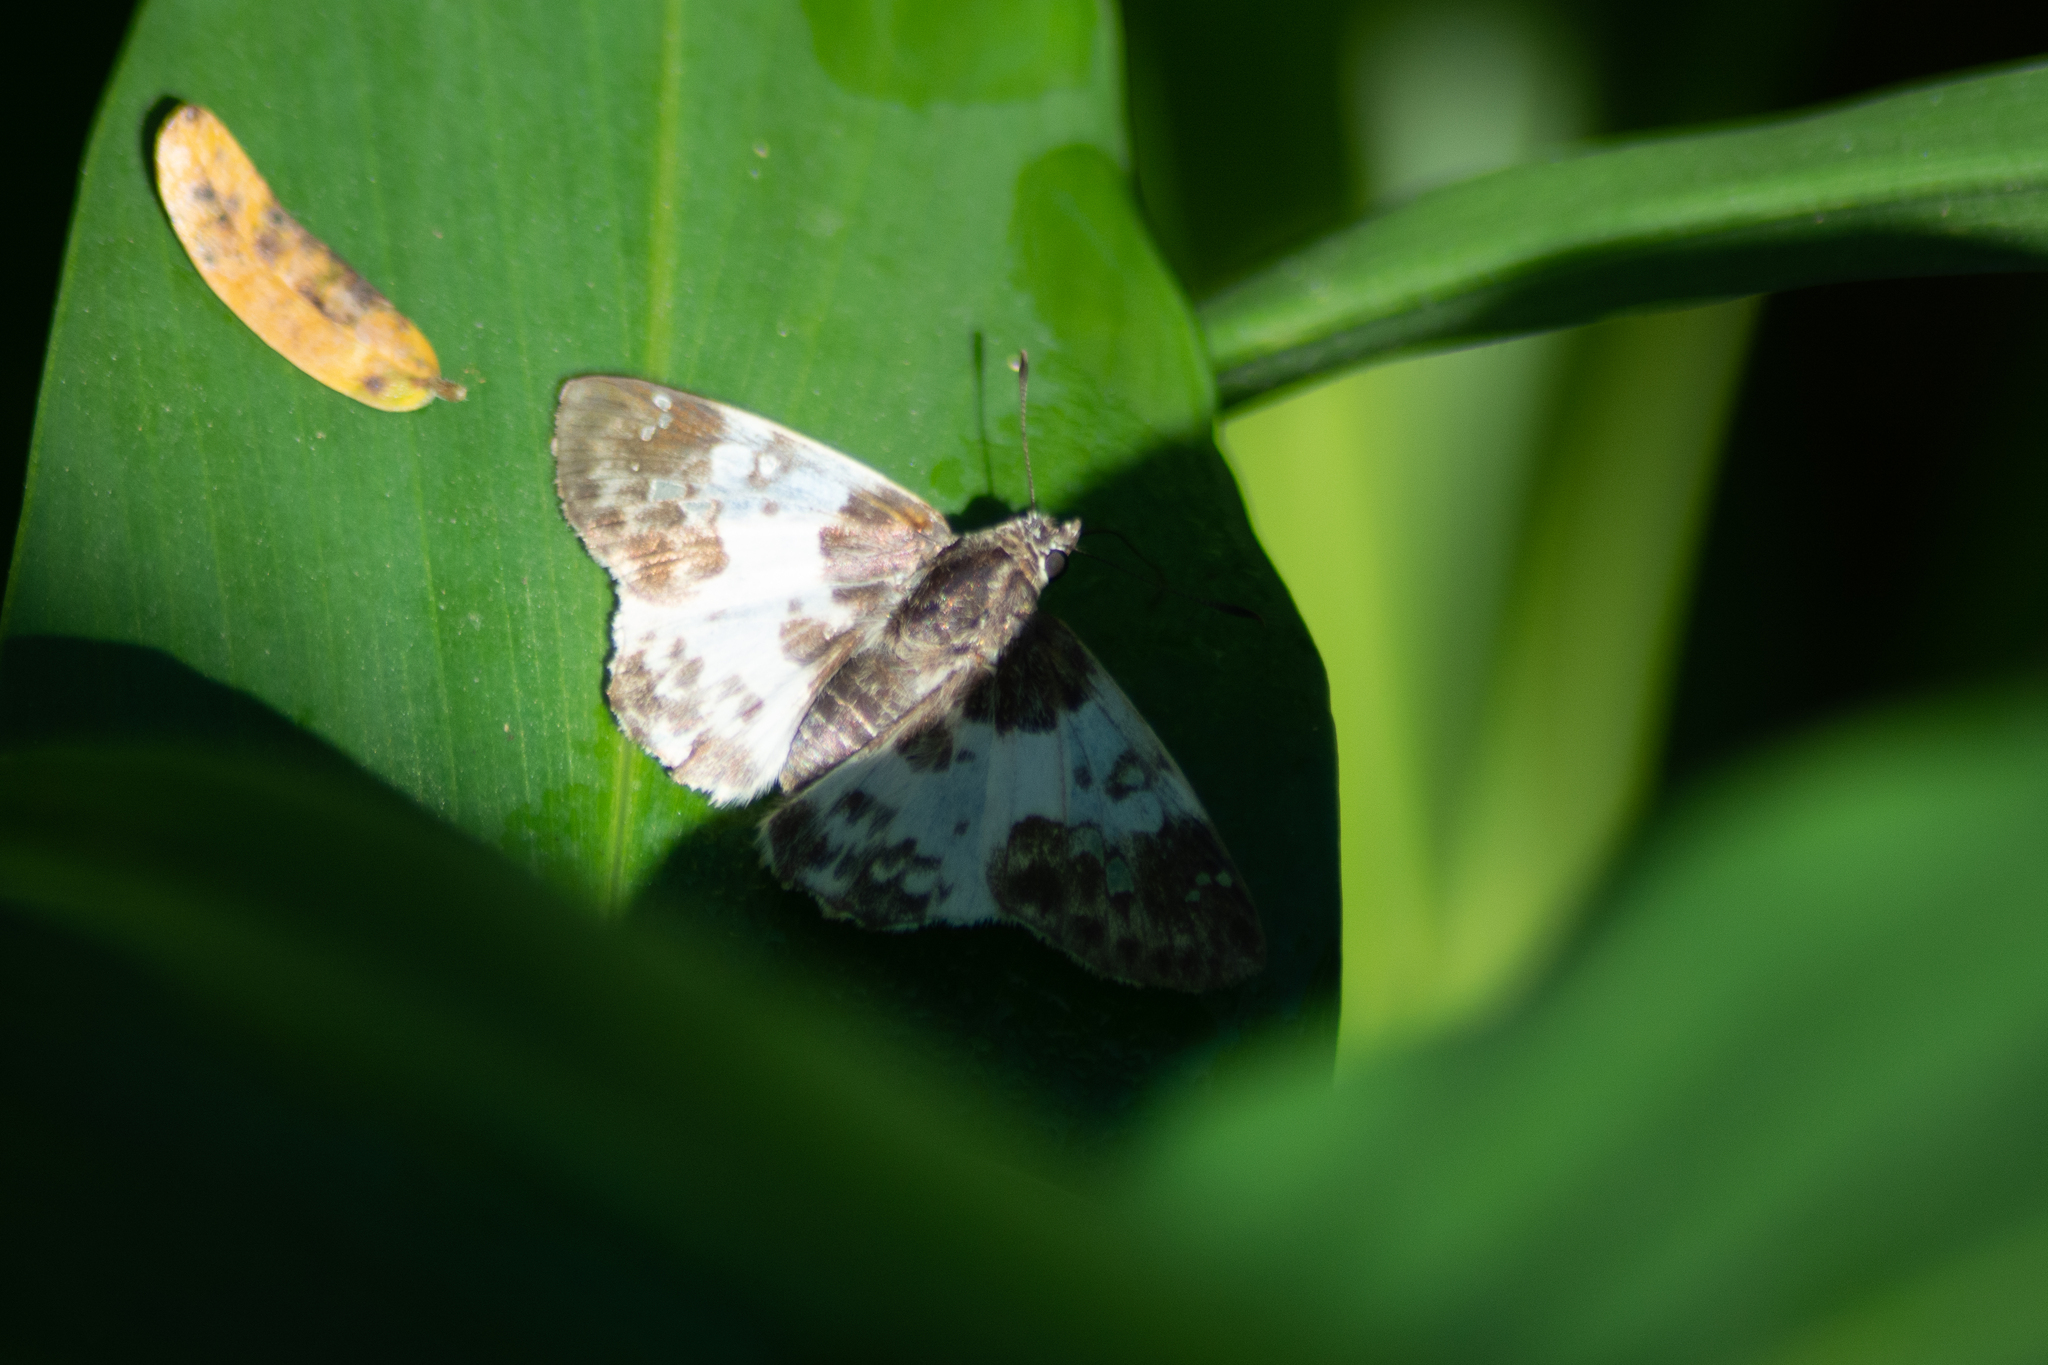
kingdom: Animalia
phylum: Arthropoda
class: Insecta
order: Lepidoptera
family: Hesperiidae
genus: Polyctor
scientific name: Polyctor polyctor
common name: Polyctor tufted-skipper
